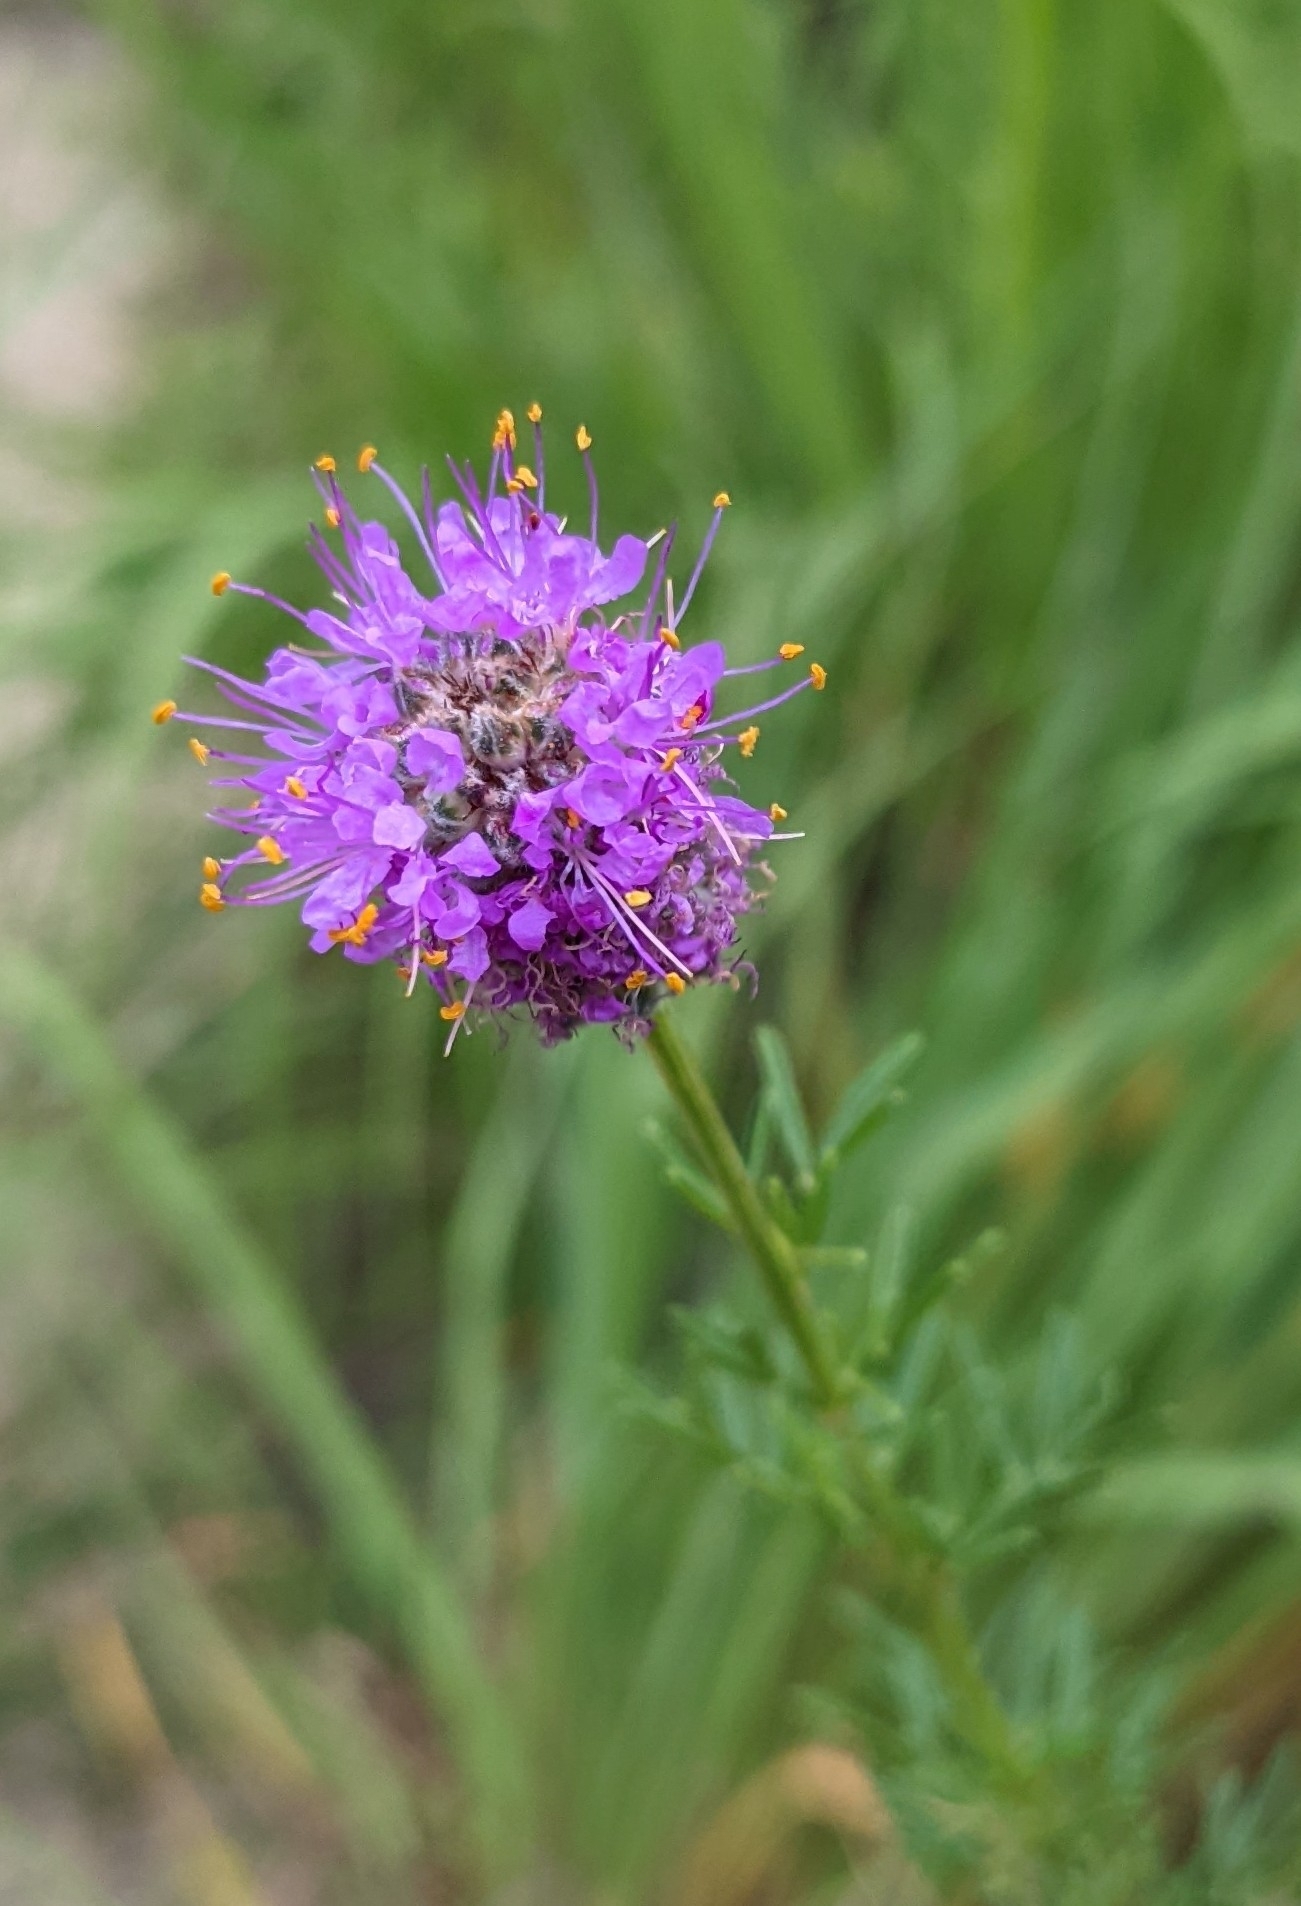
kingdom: Plantae
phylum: Tracheophyta
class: Magnoliopsida
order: Fabales
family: Fabaceae
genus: Dalea
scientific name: Dalea purpurea
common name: Purple prairie-clover
